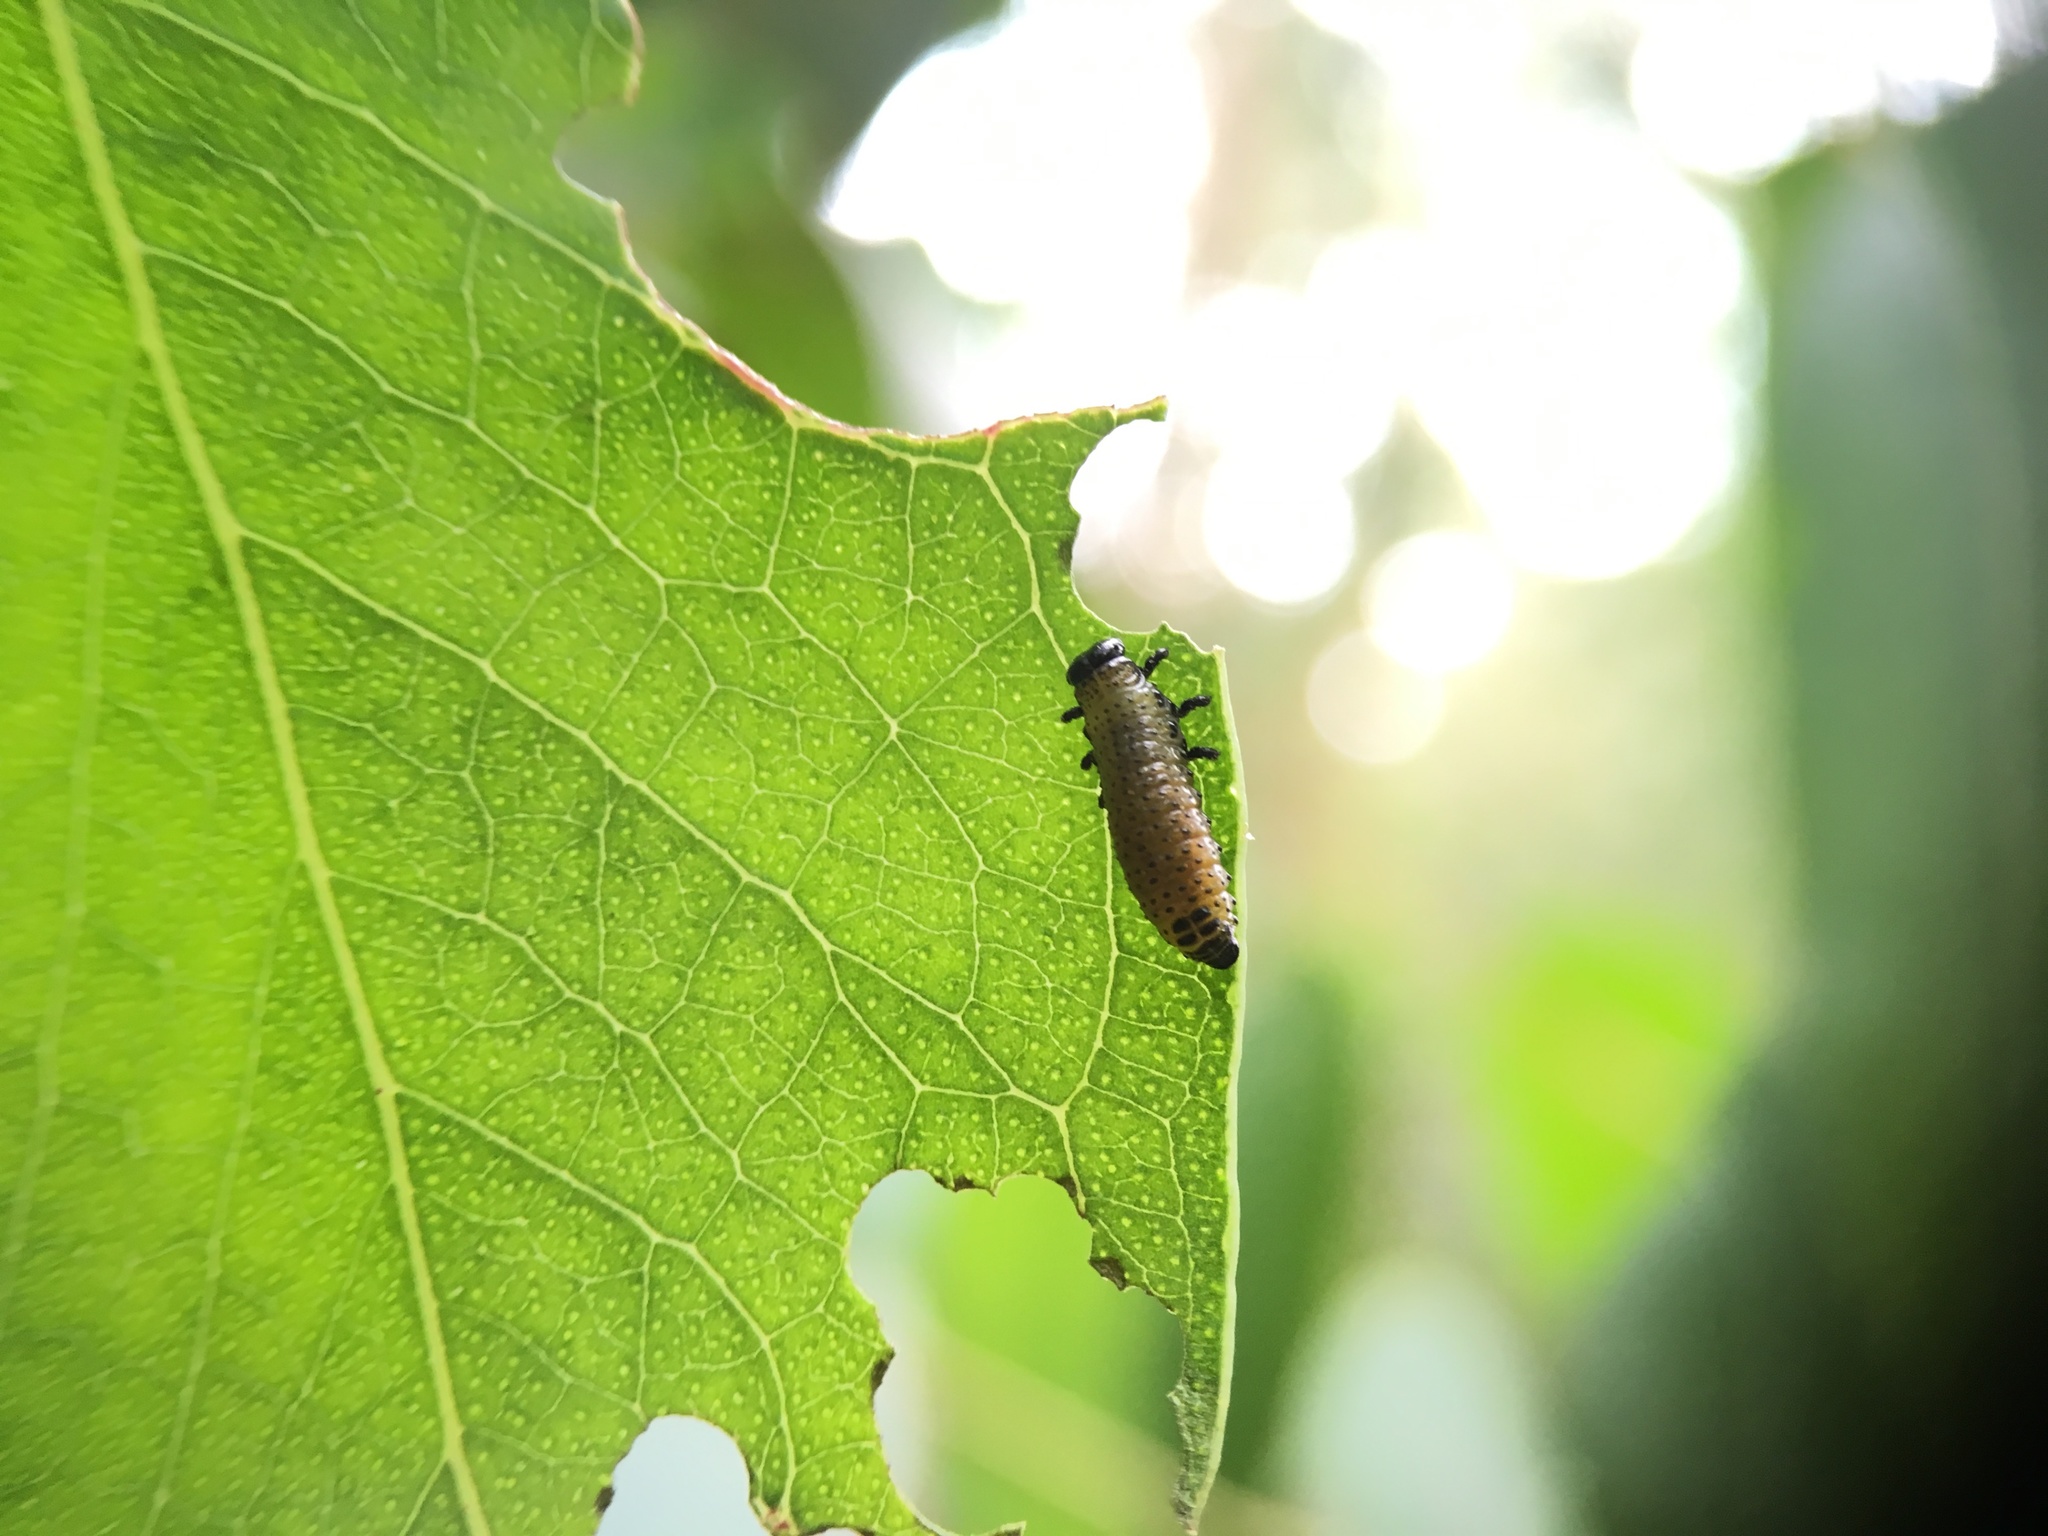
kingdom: Animalia
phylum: Arthropoda
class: Insecta
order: Coleoptera
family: Chrysomelidae
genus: Paropsis
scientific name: Paropsis charybdis
